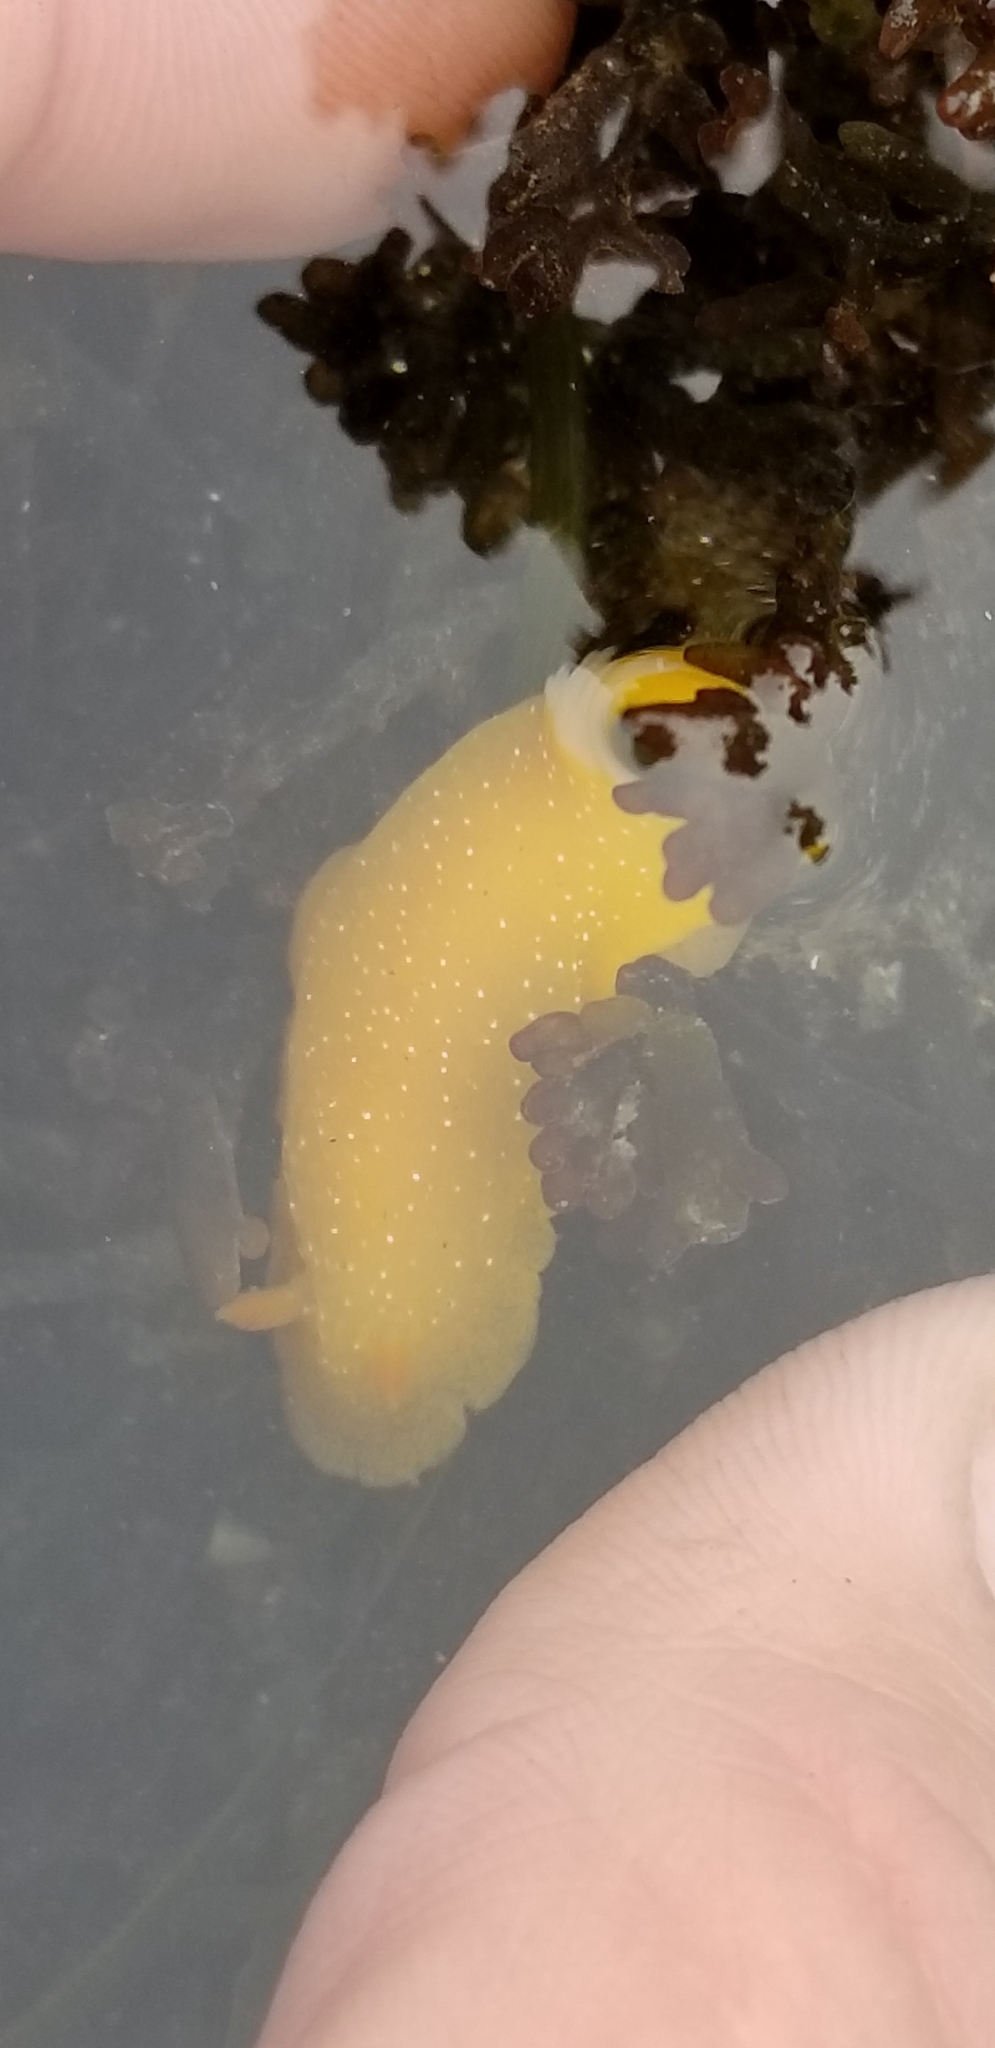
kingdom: Animalia
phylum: Mollusca
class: Gastropoda
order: Nudibranchia
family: Dendrodorididae
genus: Doriopsilla
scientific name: Doriopsilla fulva
